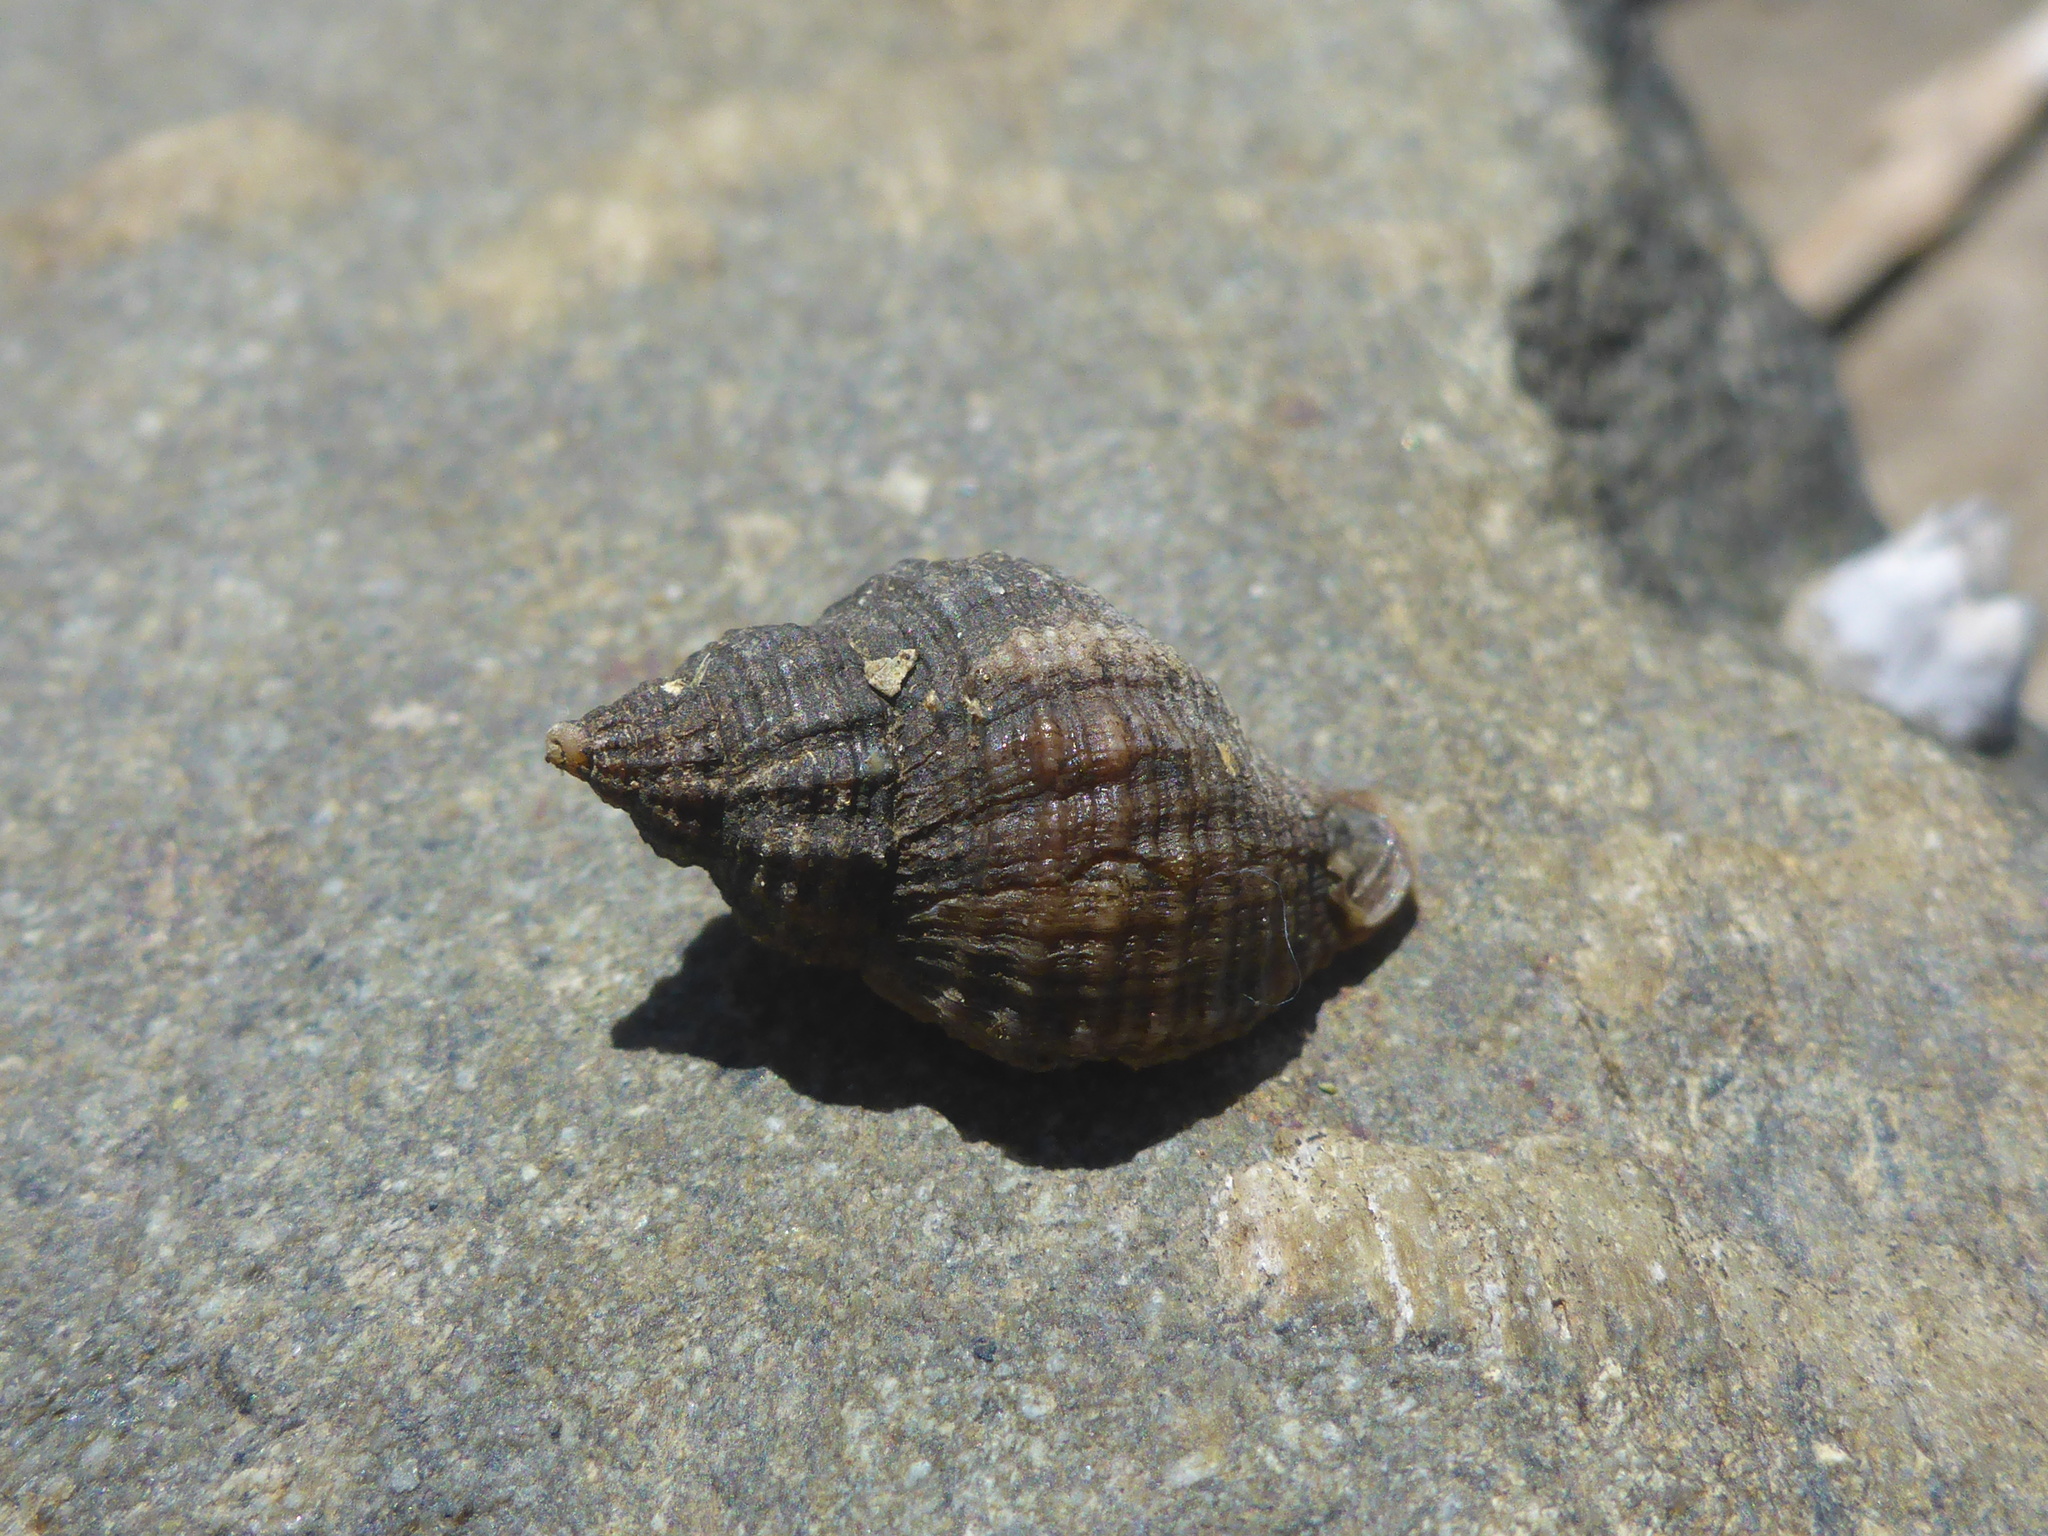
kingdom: Animalia
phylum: Mollusca
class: Gastropoda
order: Neogastropoda
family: Muricidae
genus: Urosalpinx
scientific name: Urosalpinx cinerea
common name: American sting winkle
